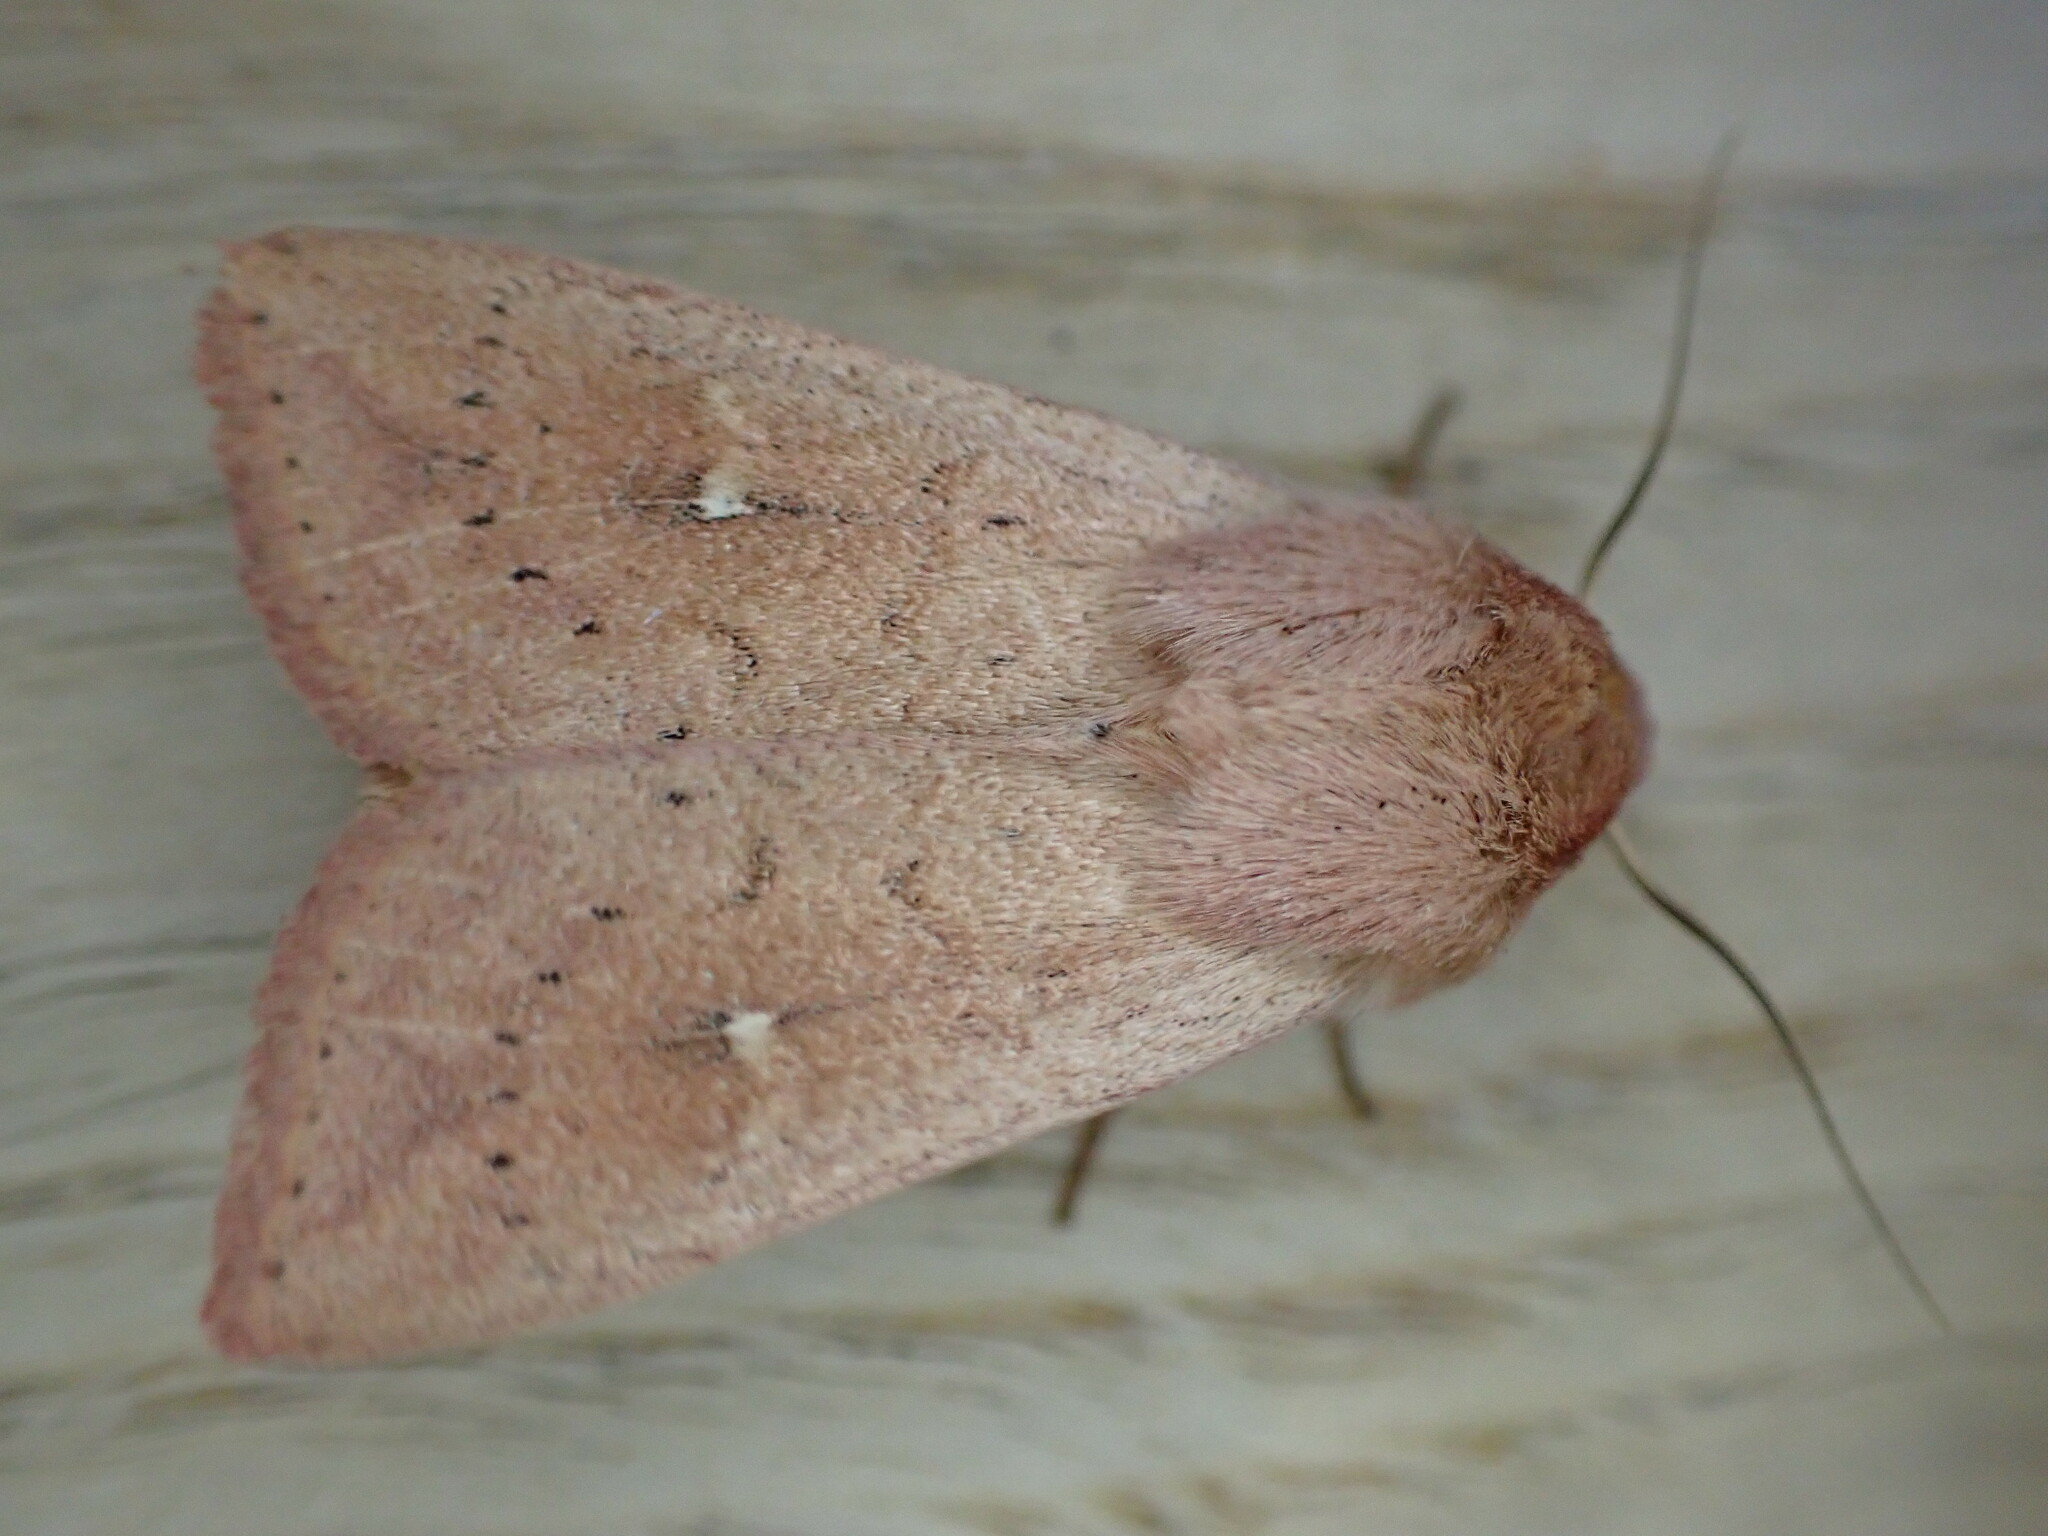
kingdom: Animalia
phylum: Arthropoda
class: Insecta
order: Lepidoptera
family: Noctuidae
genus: Mythimna
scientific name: Mythimna ferrago
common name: Clay
